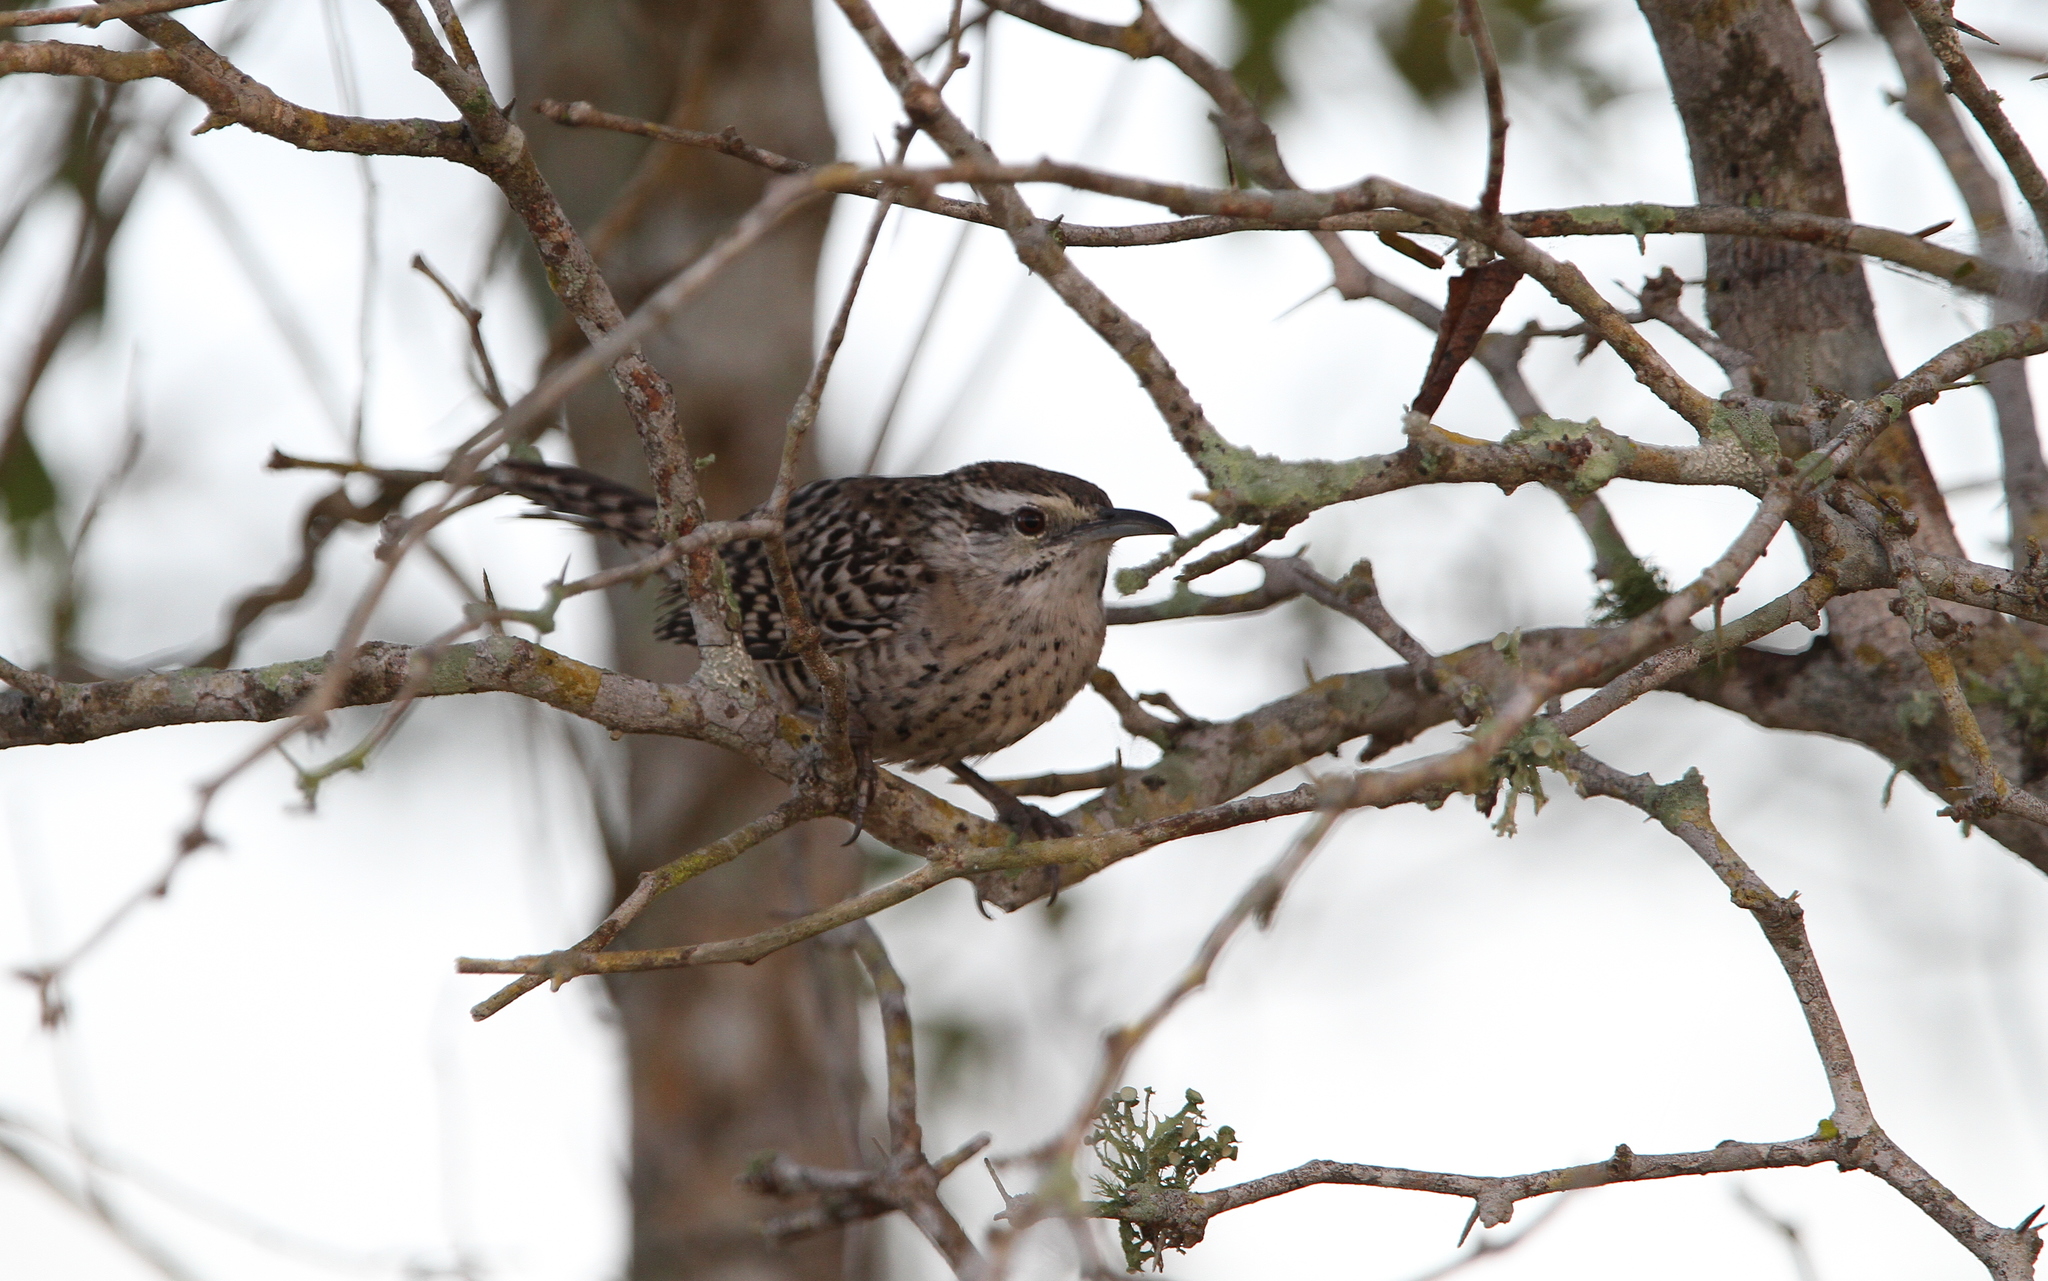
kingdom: Animalia
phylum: Chordata
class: Aves
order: Passeriformes
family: Troglodytidae
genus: Campylorhynchus
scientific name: Campylorhynchus yucatanicus
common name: Yucatan wren
